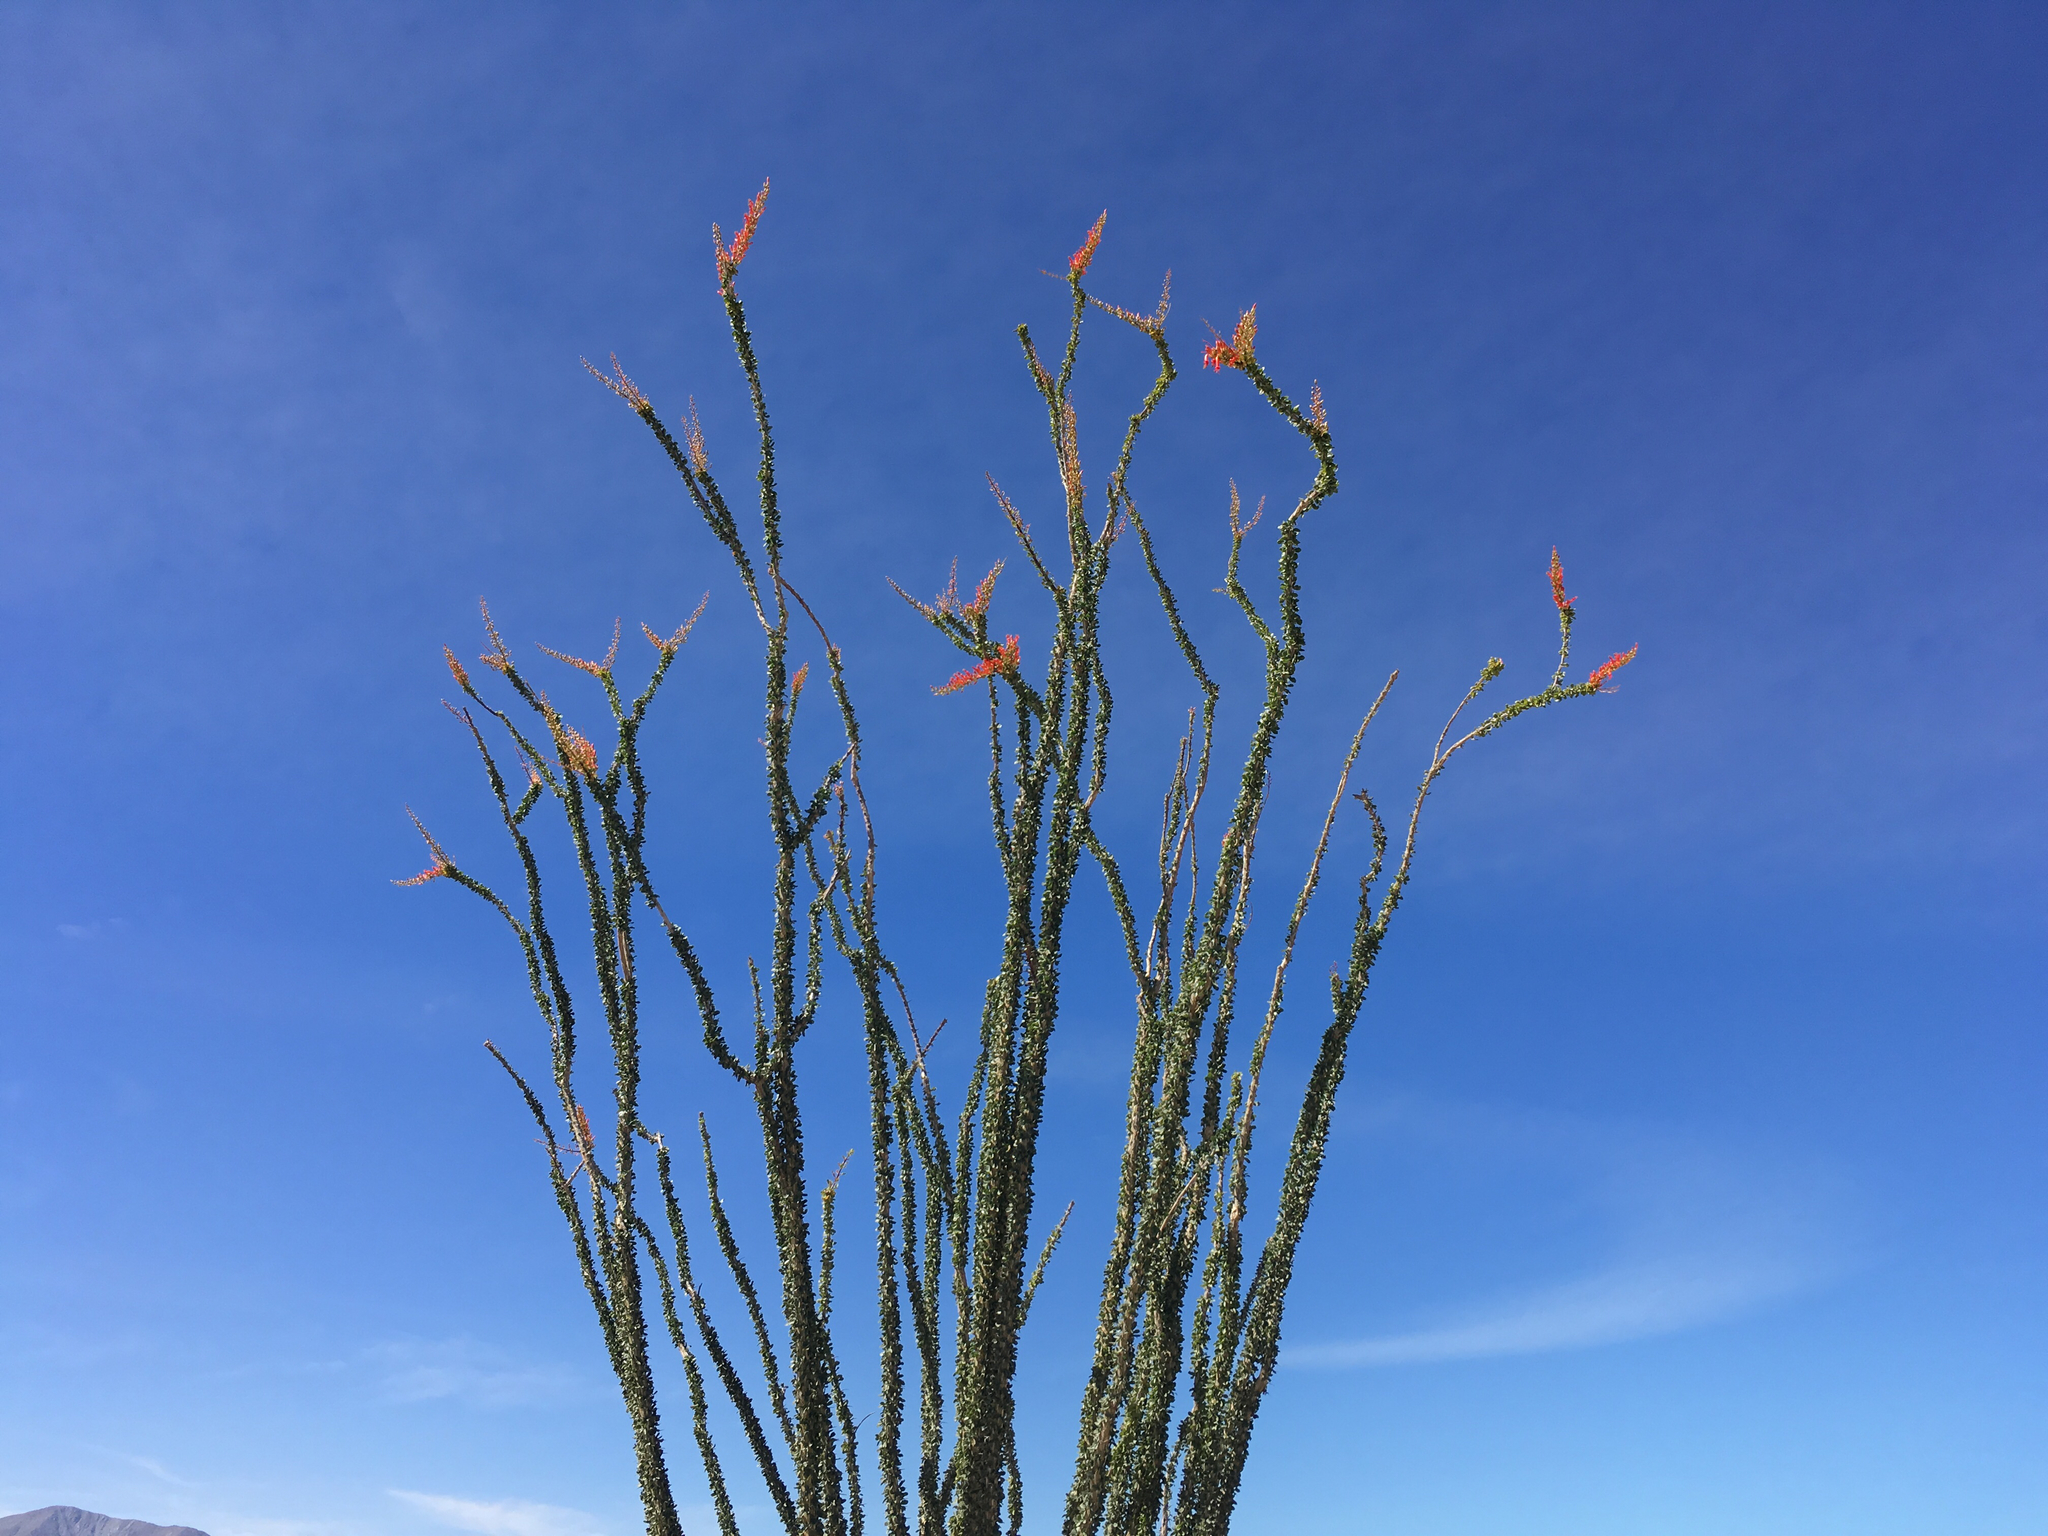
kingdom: Plantae
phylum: Tracheophyta
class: Magnoliopsida
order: Ericales
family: Fouquieriaceae
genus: Fouquieria
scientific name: Fouquieria splendens
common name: Vine-cactus
